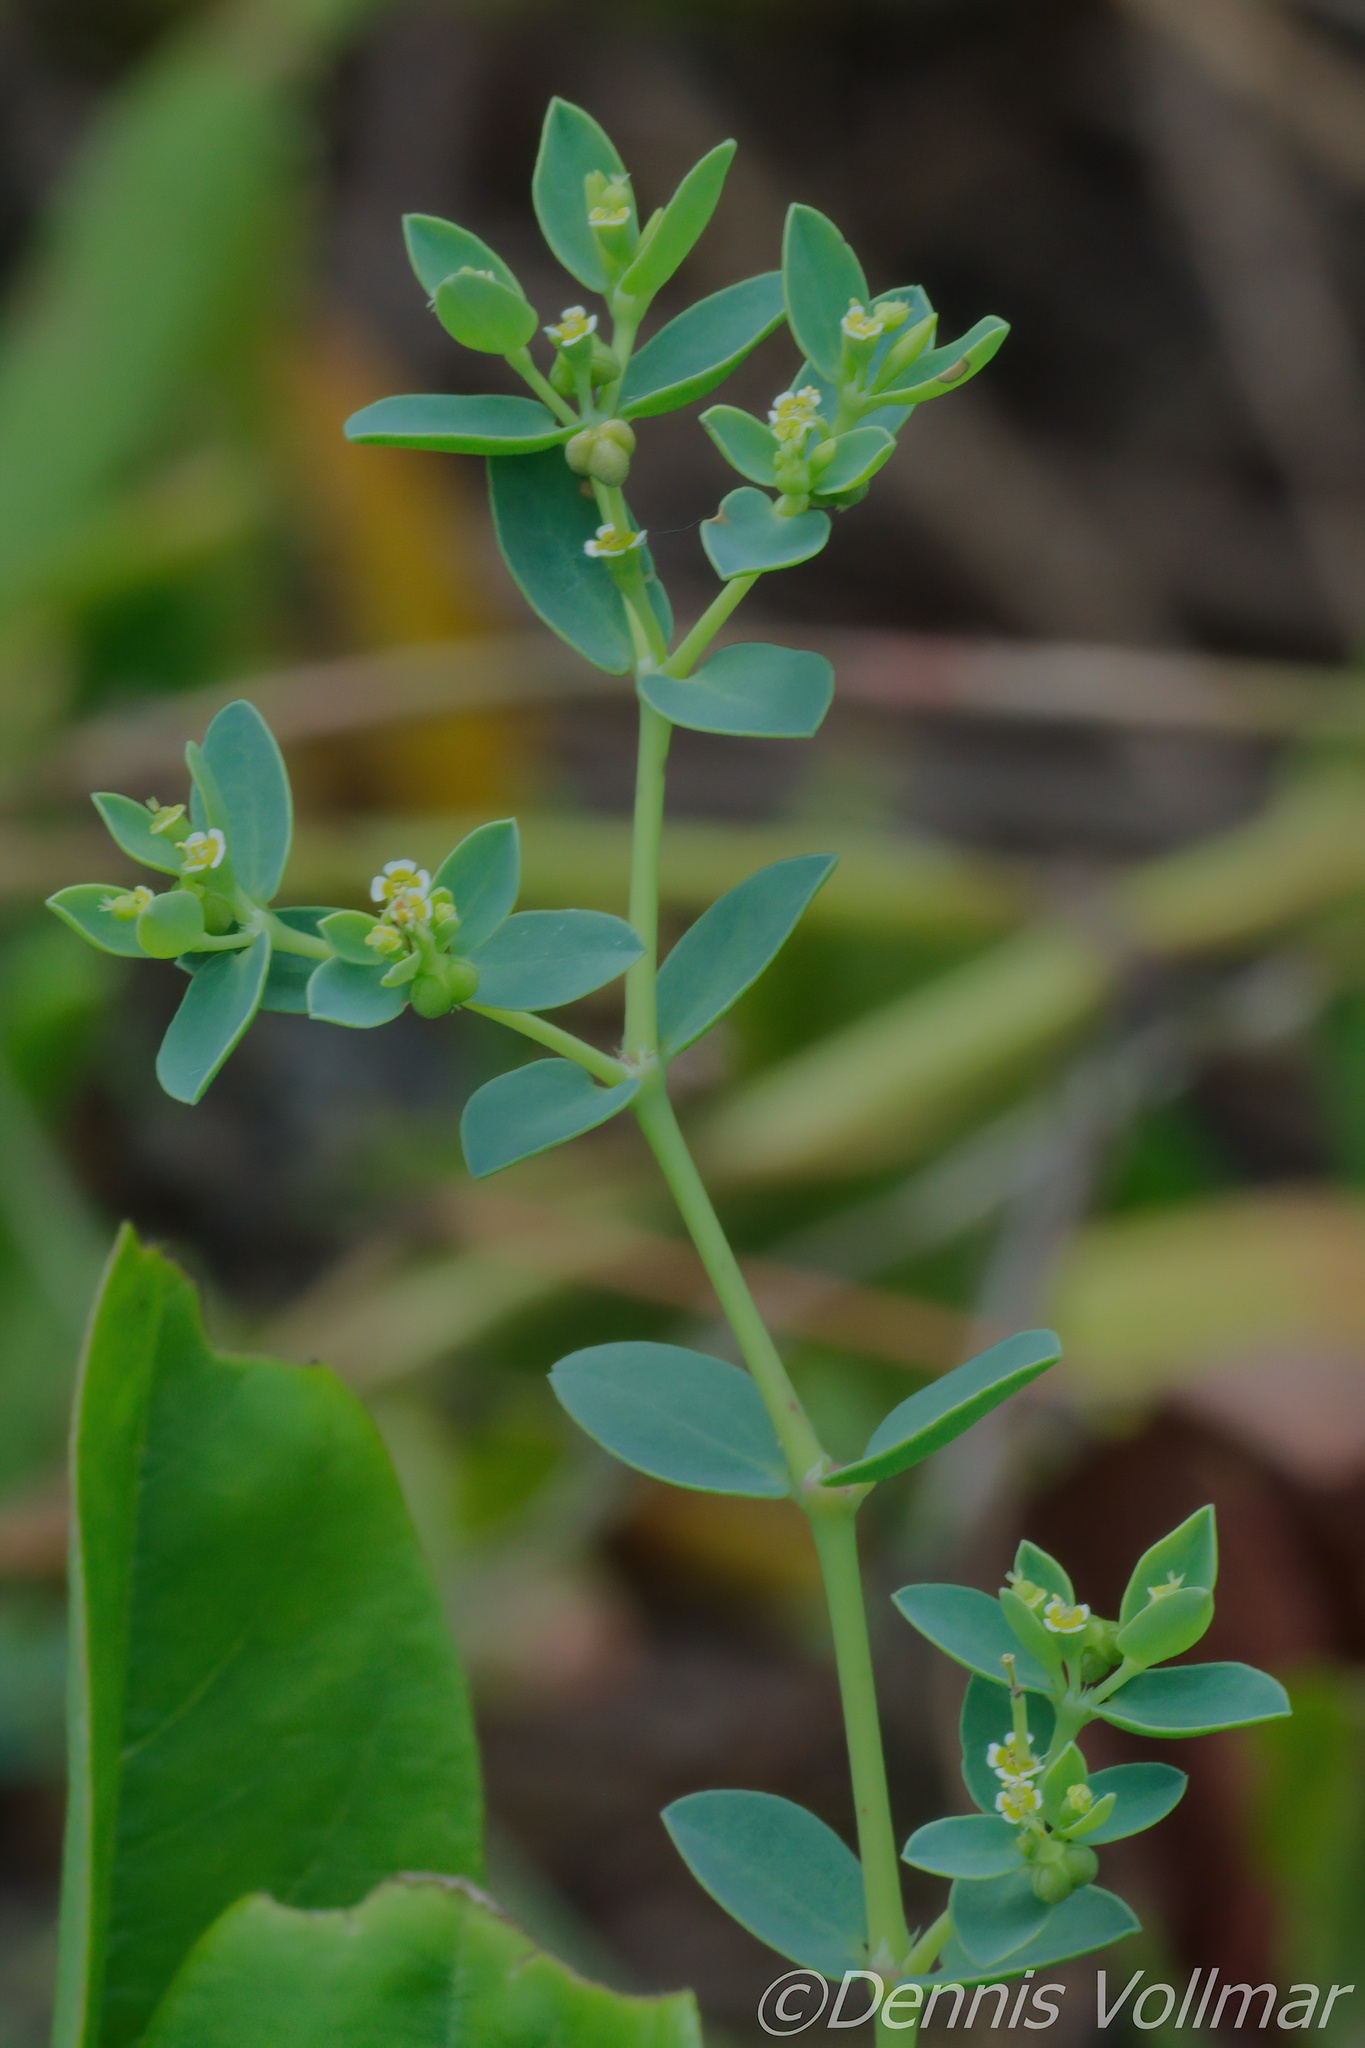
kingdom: Plantae
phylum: Tracheophyta
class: Magnoliopsida
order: Malpighiales
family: Euphorbiaceae
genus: Euphorbia
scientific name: Euphorbia mesembryanthemifolia
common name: Coastal beach sandmat
